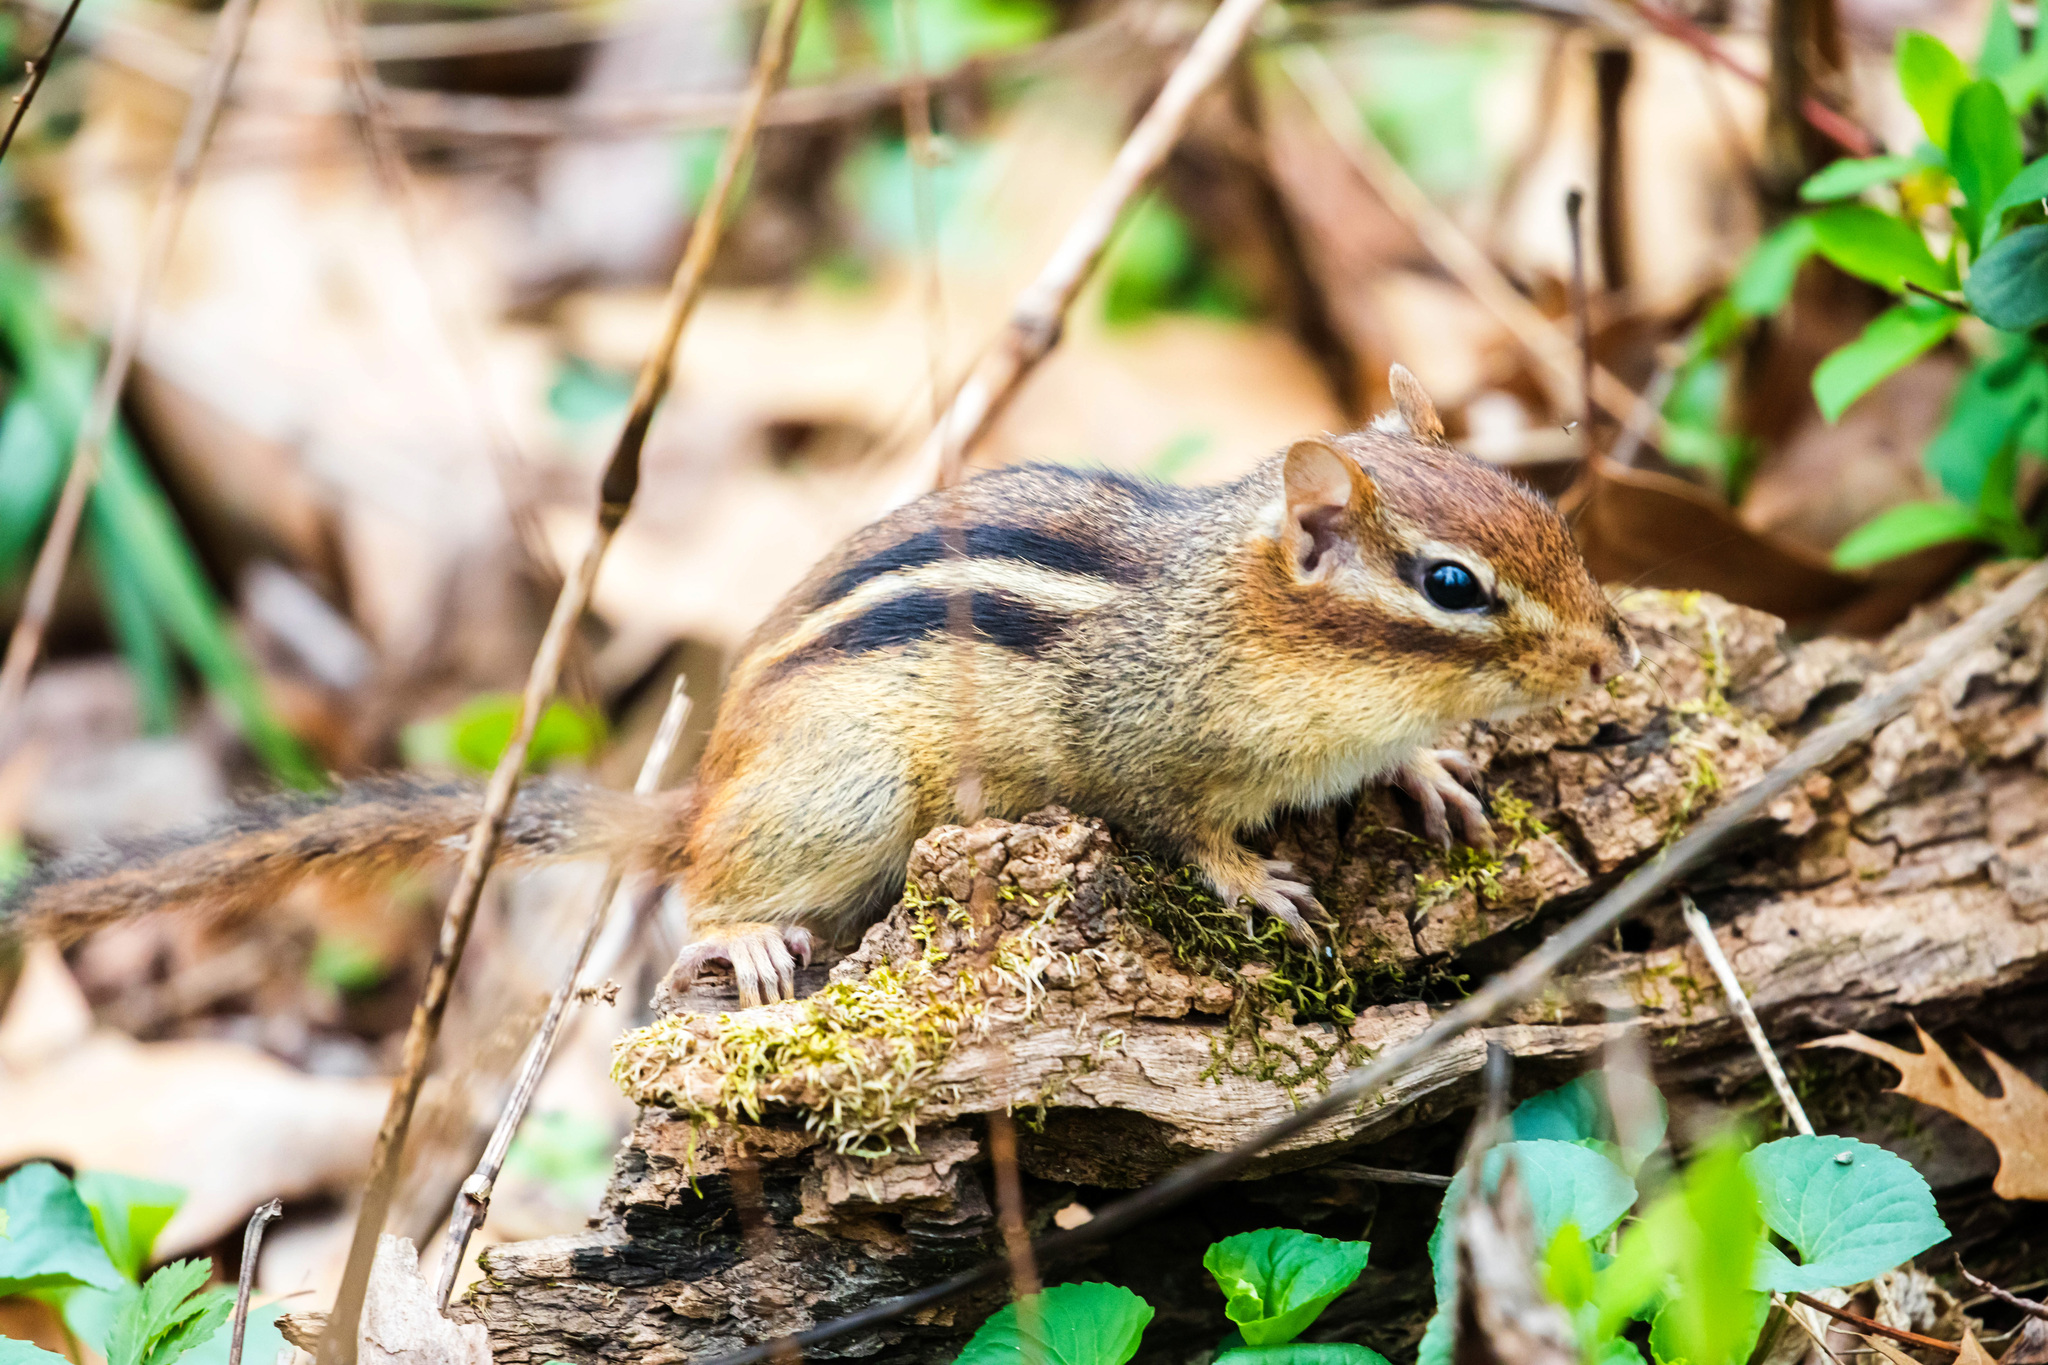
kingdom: Animalia
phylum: Chordata
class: Mammalia
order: Rodentia
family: Sciuridae
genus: Tamias
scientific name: Tamias striatus
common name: Eastern chipmunk
